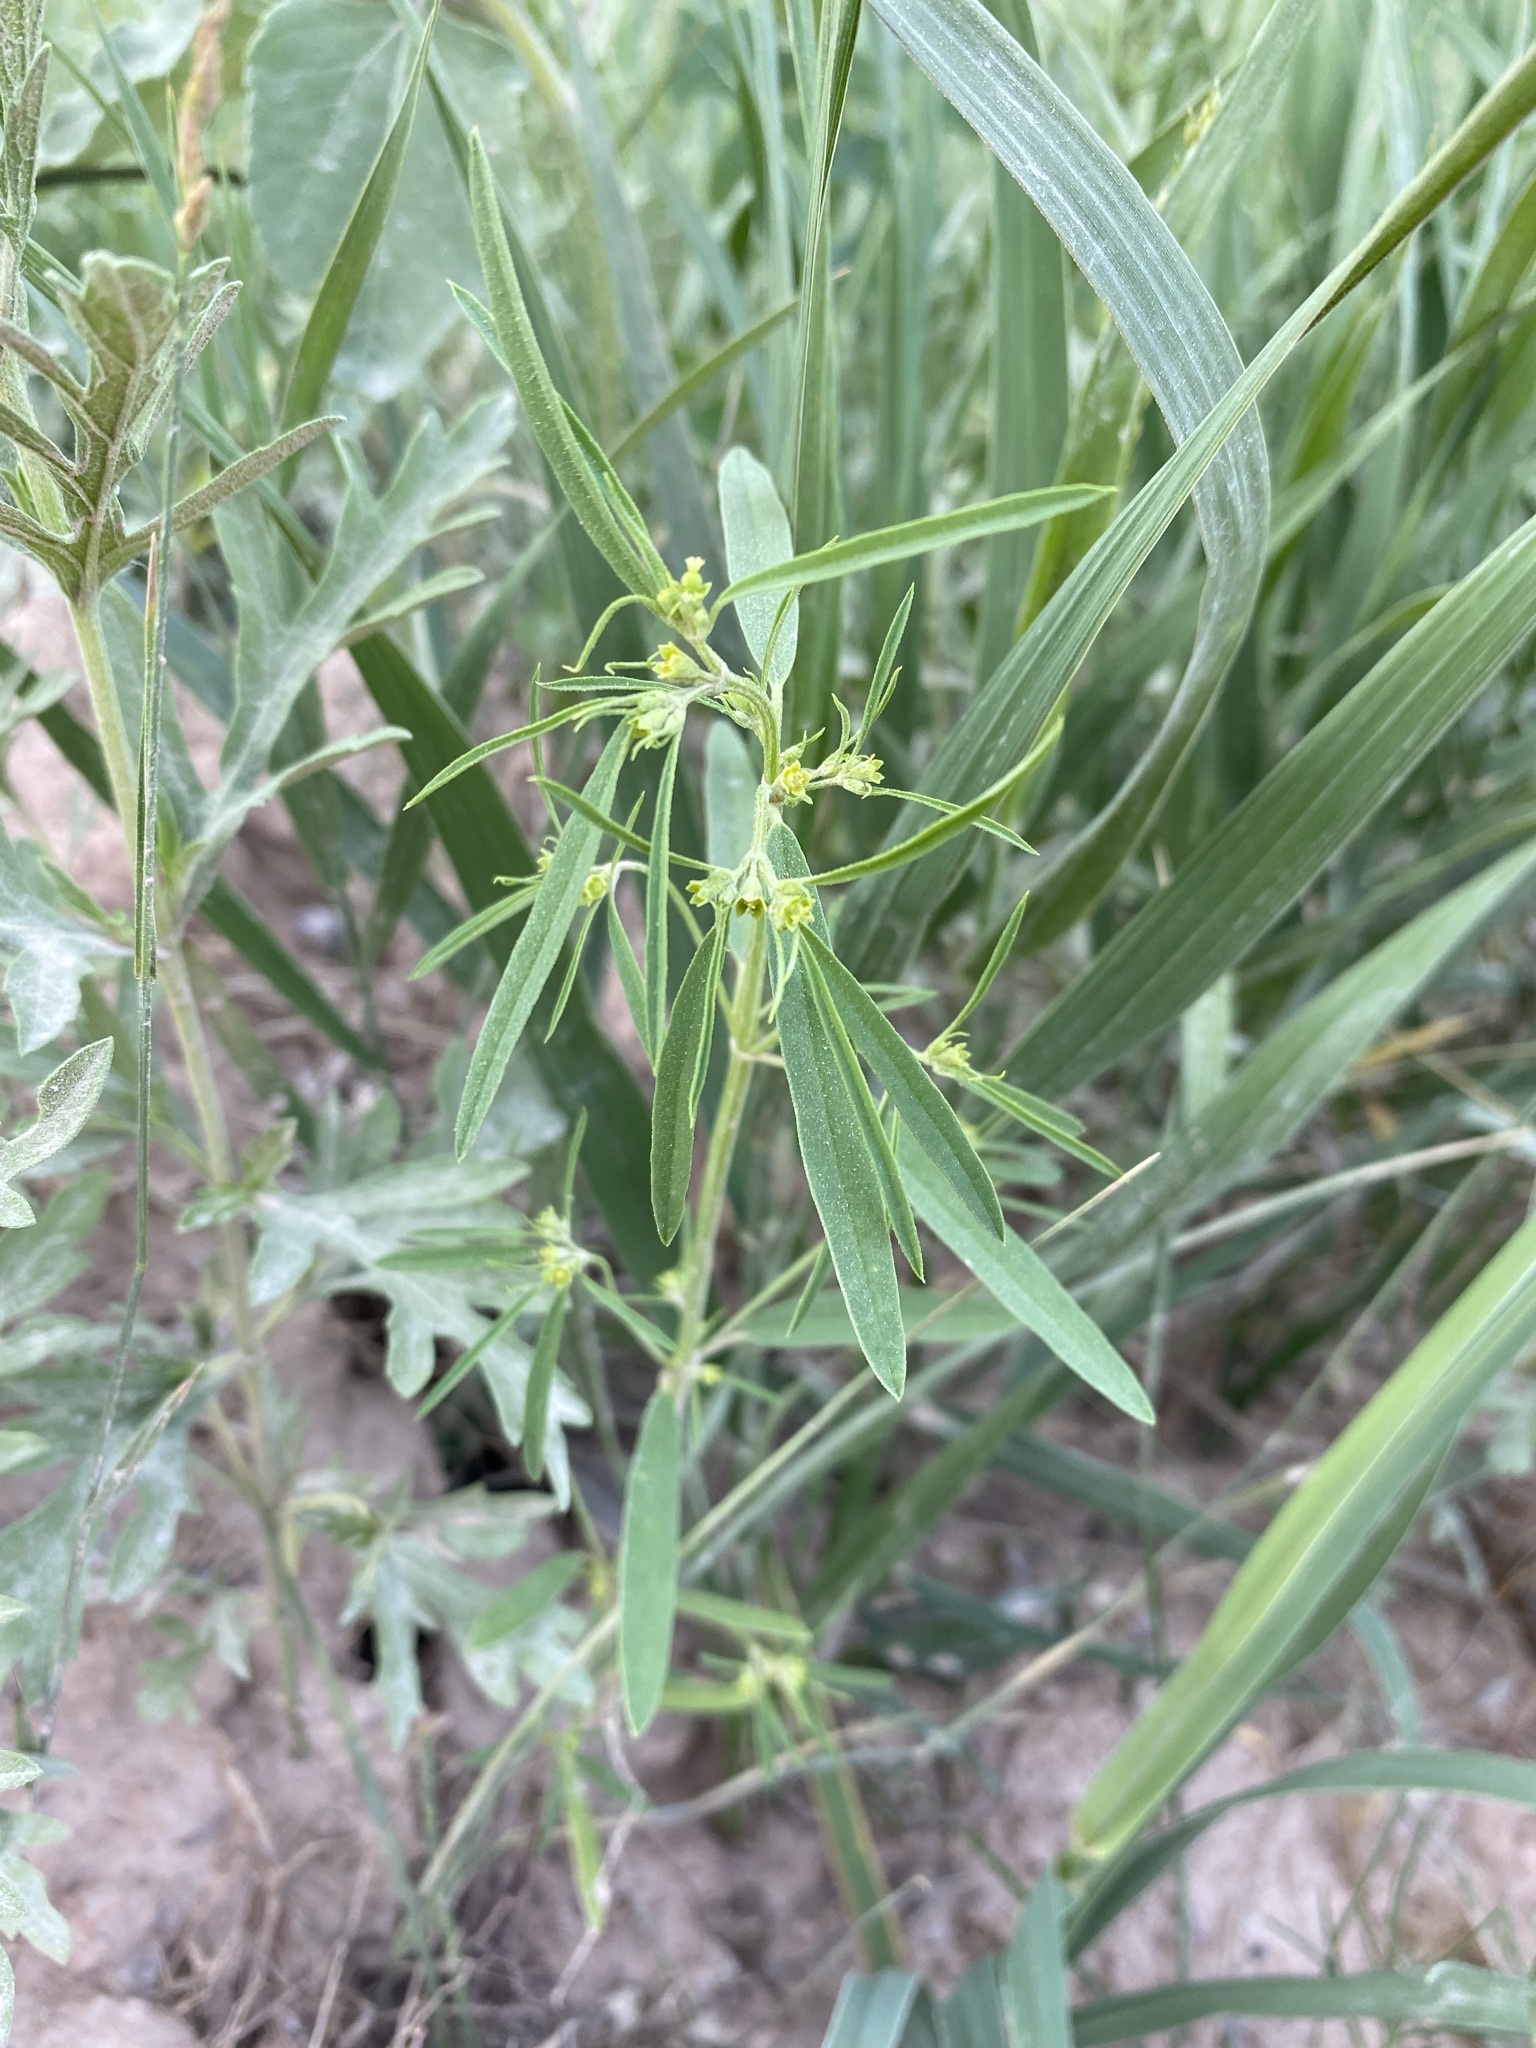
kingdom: Plantae
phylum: Tracheophyta
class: Magnoliopsida
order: Malpighiales
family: Euphorbiaceae
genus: Euphorbia
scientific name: Euphorbia hexagona
